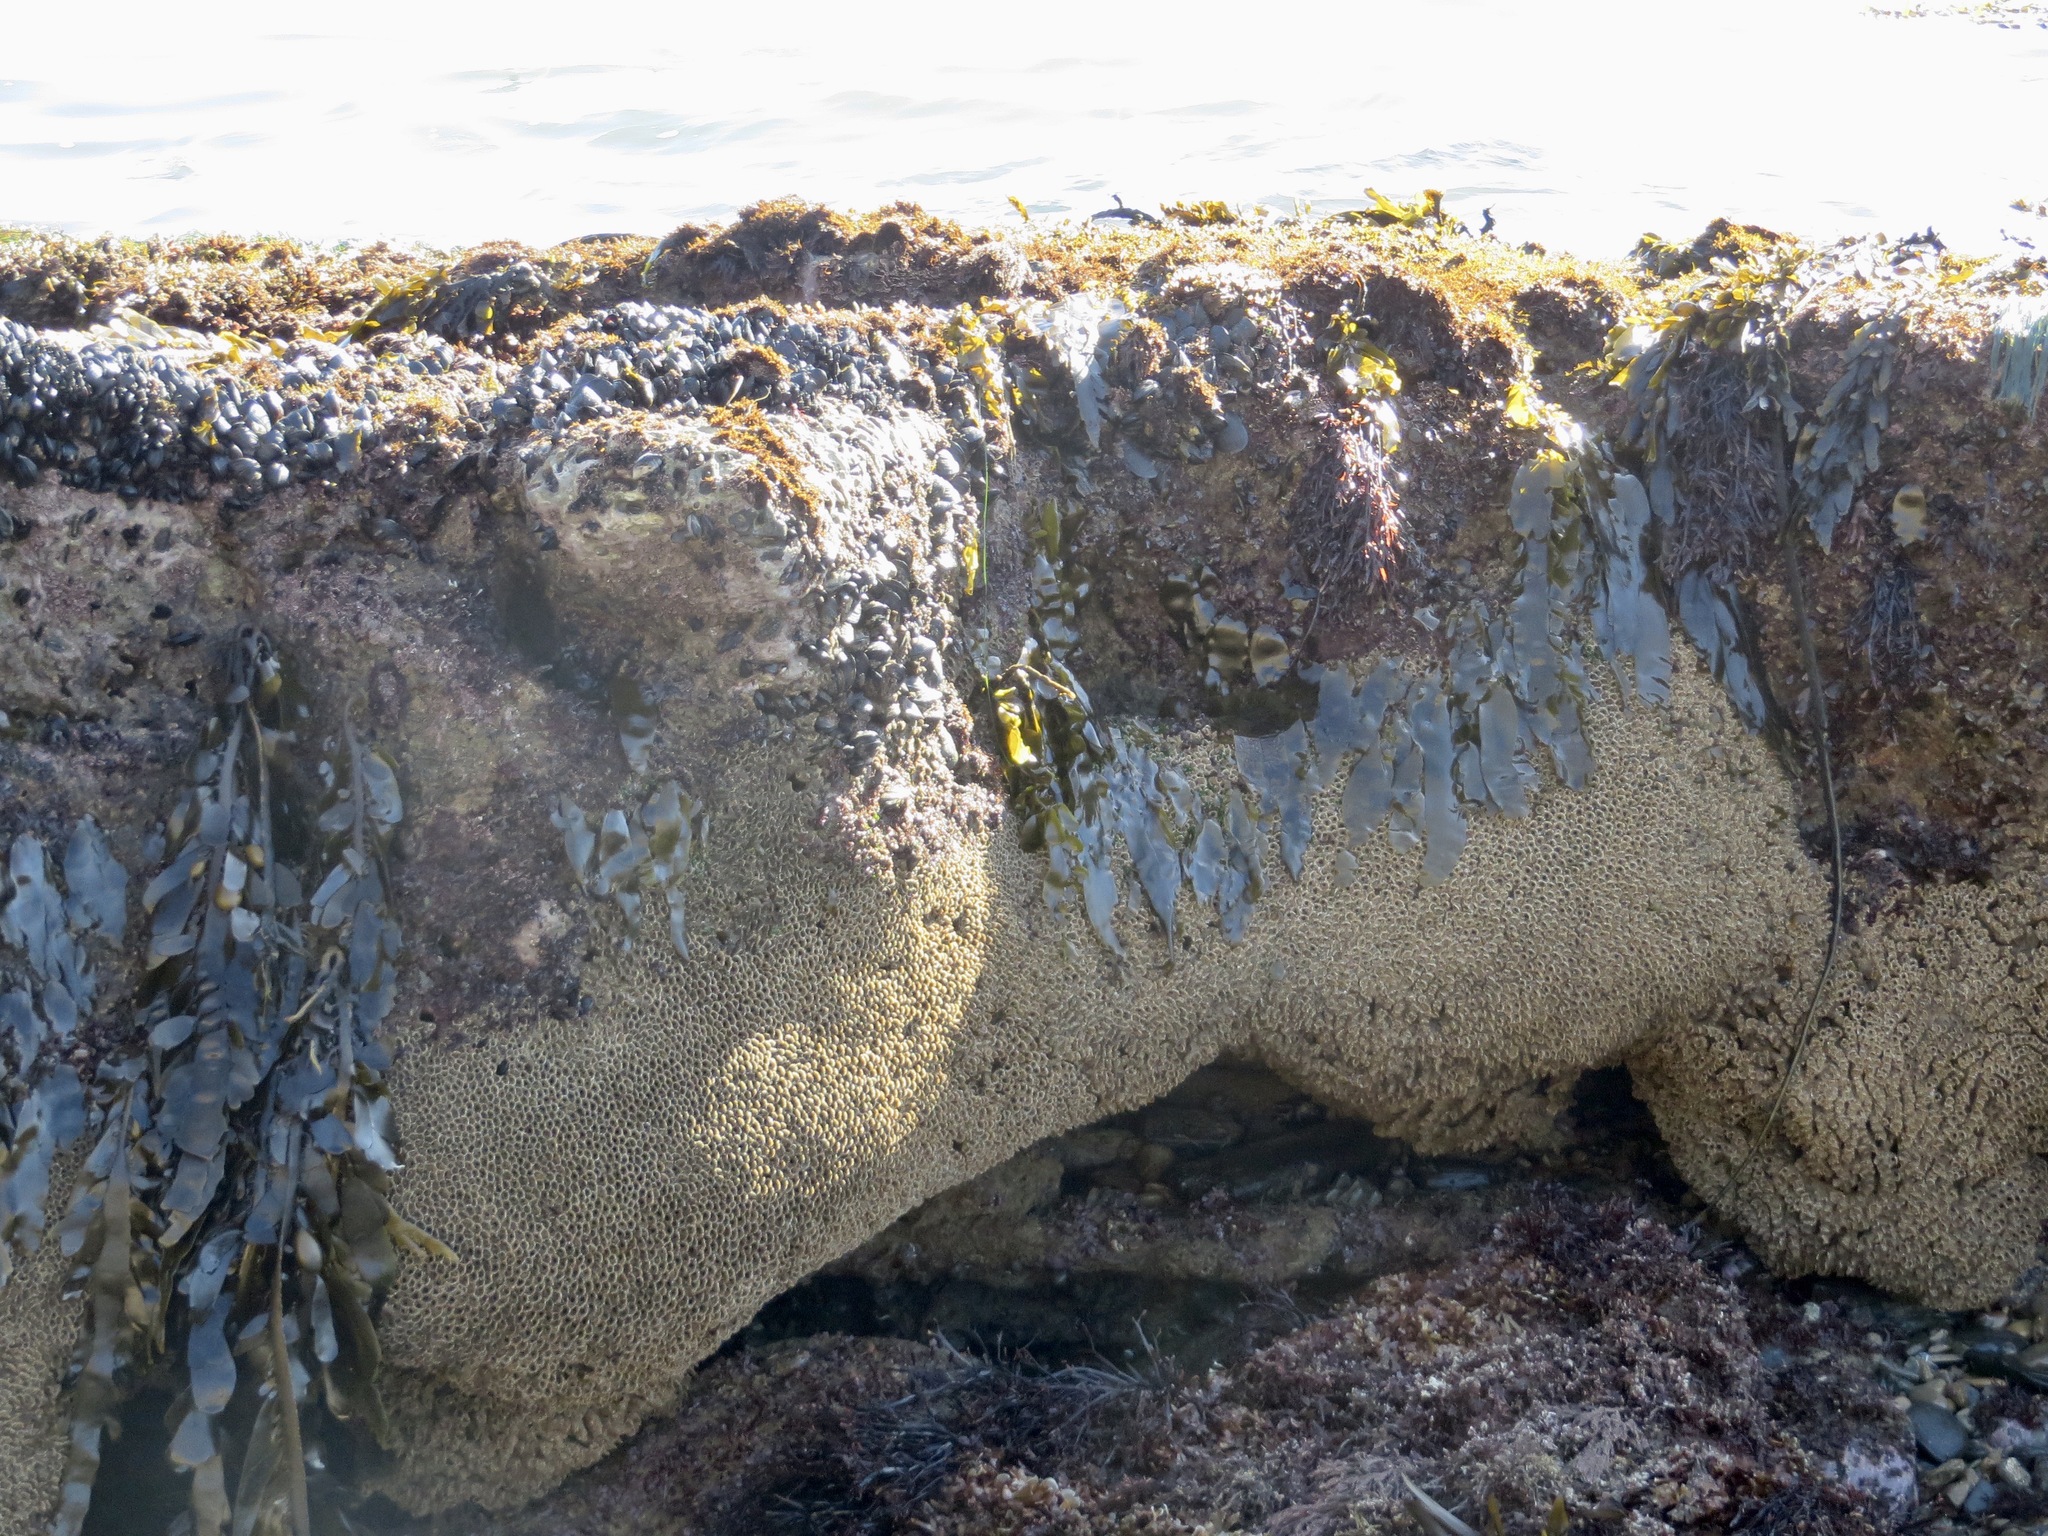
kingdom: Animalia
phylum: Annelida
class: Polychaeta
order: Sabellida
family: Sabellariidae
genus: Phragmatopoma
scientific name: Phragmatopoma californica
